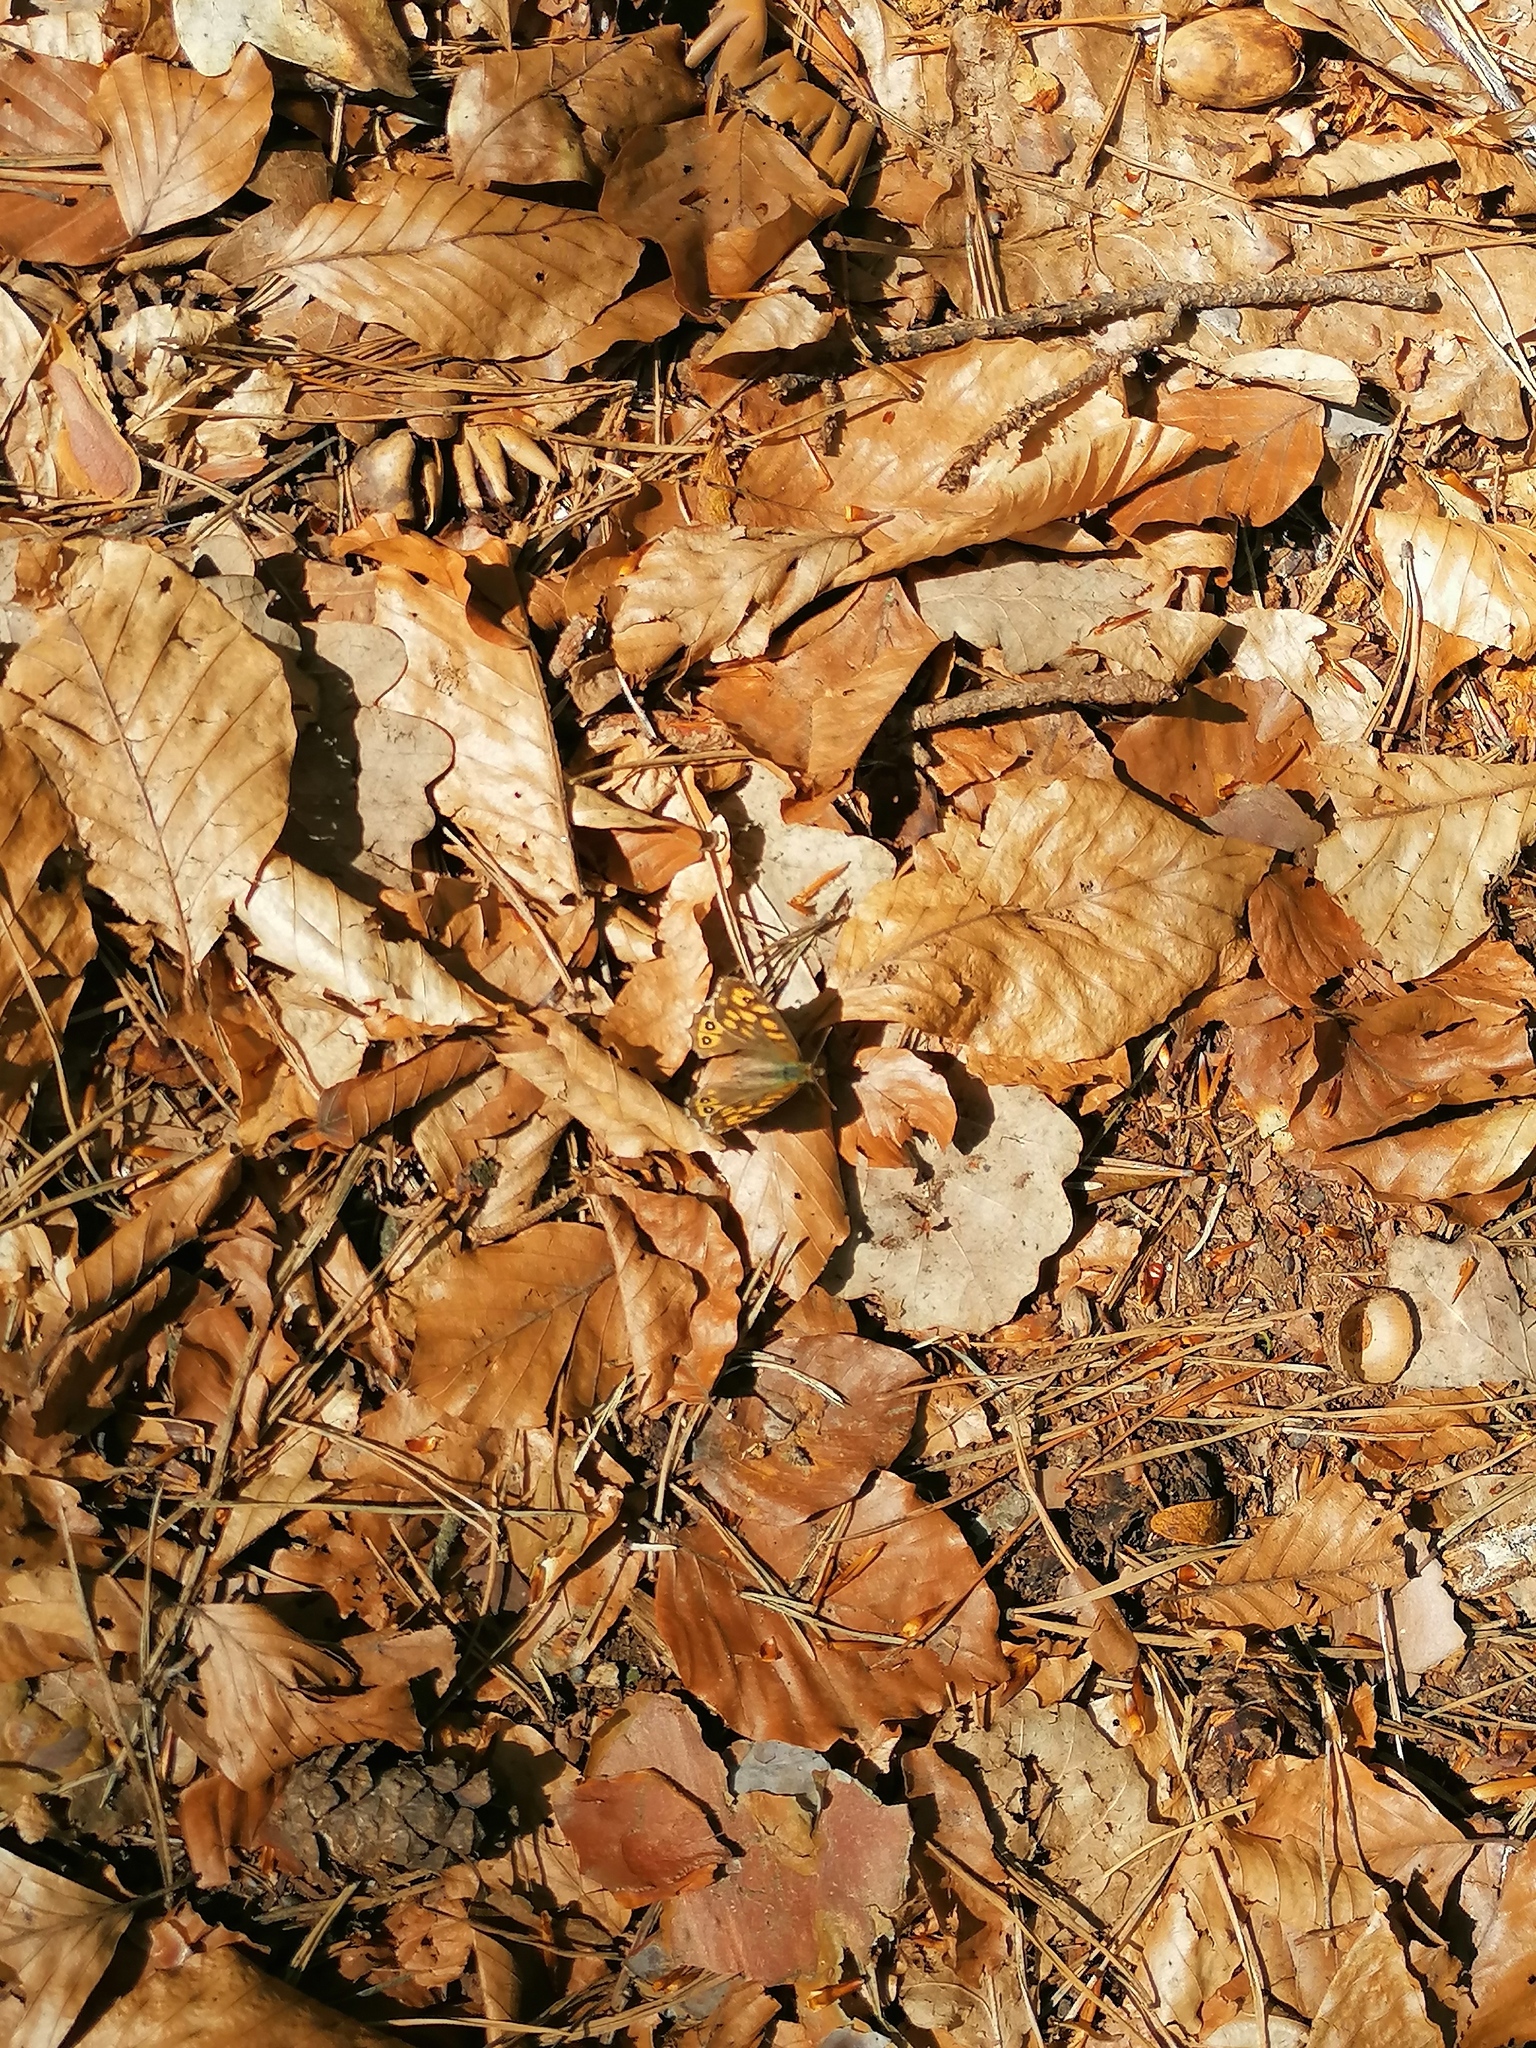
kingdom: Animalia
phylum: Arthropoda
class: Insecta
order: Lepidoptera
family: Nymphalidae
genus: Pararge
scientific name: Pararge aegeria
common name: Speckled wood
